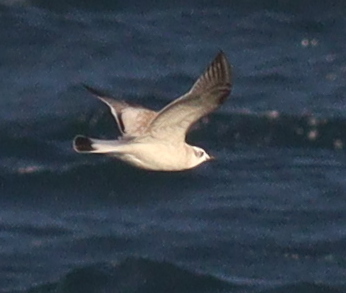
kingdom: Animalia
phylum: Chordata
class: Aves
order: Charadriiformes
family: Laridae
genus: Ichthyaetus
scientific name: Ichthyaetus melanocephalus
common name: Mediterranean gull
